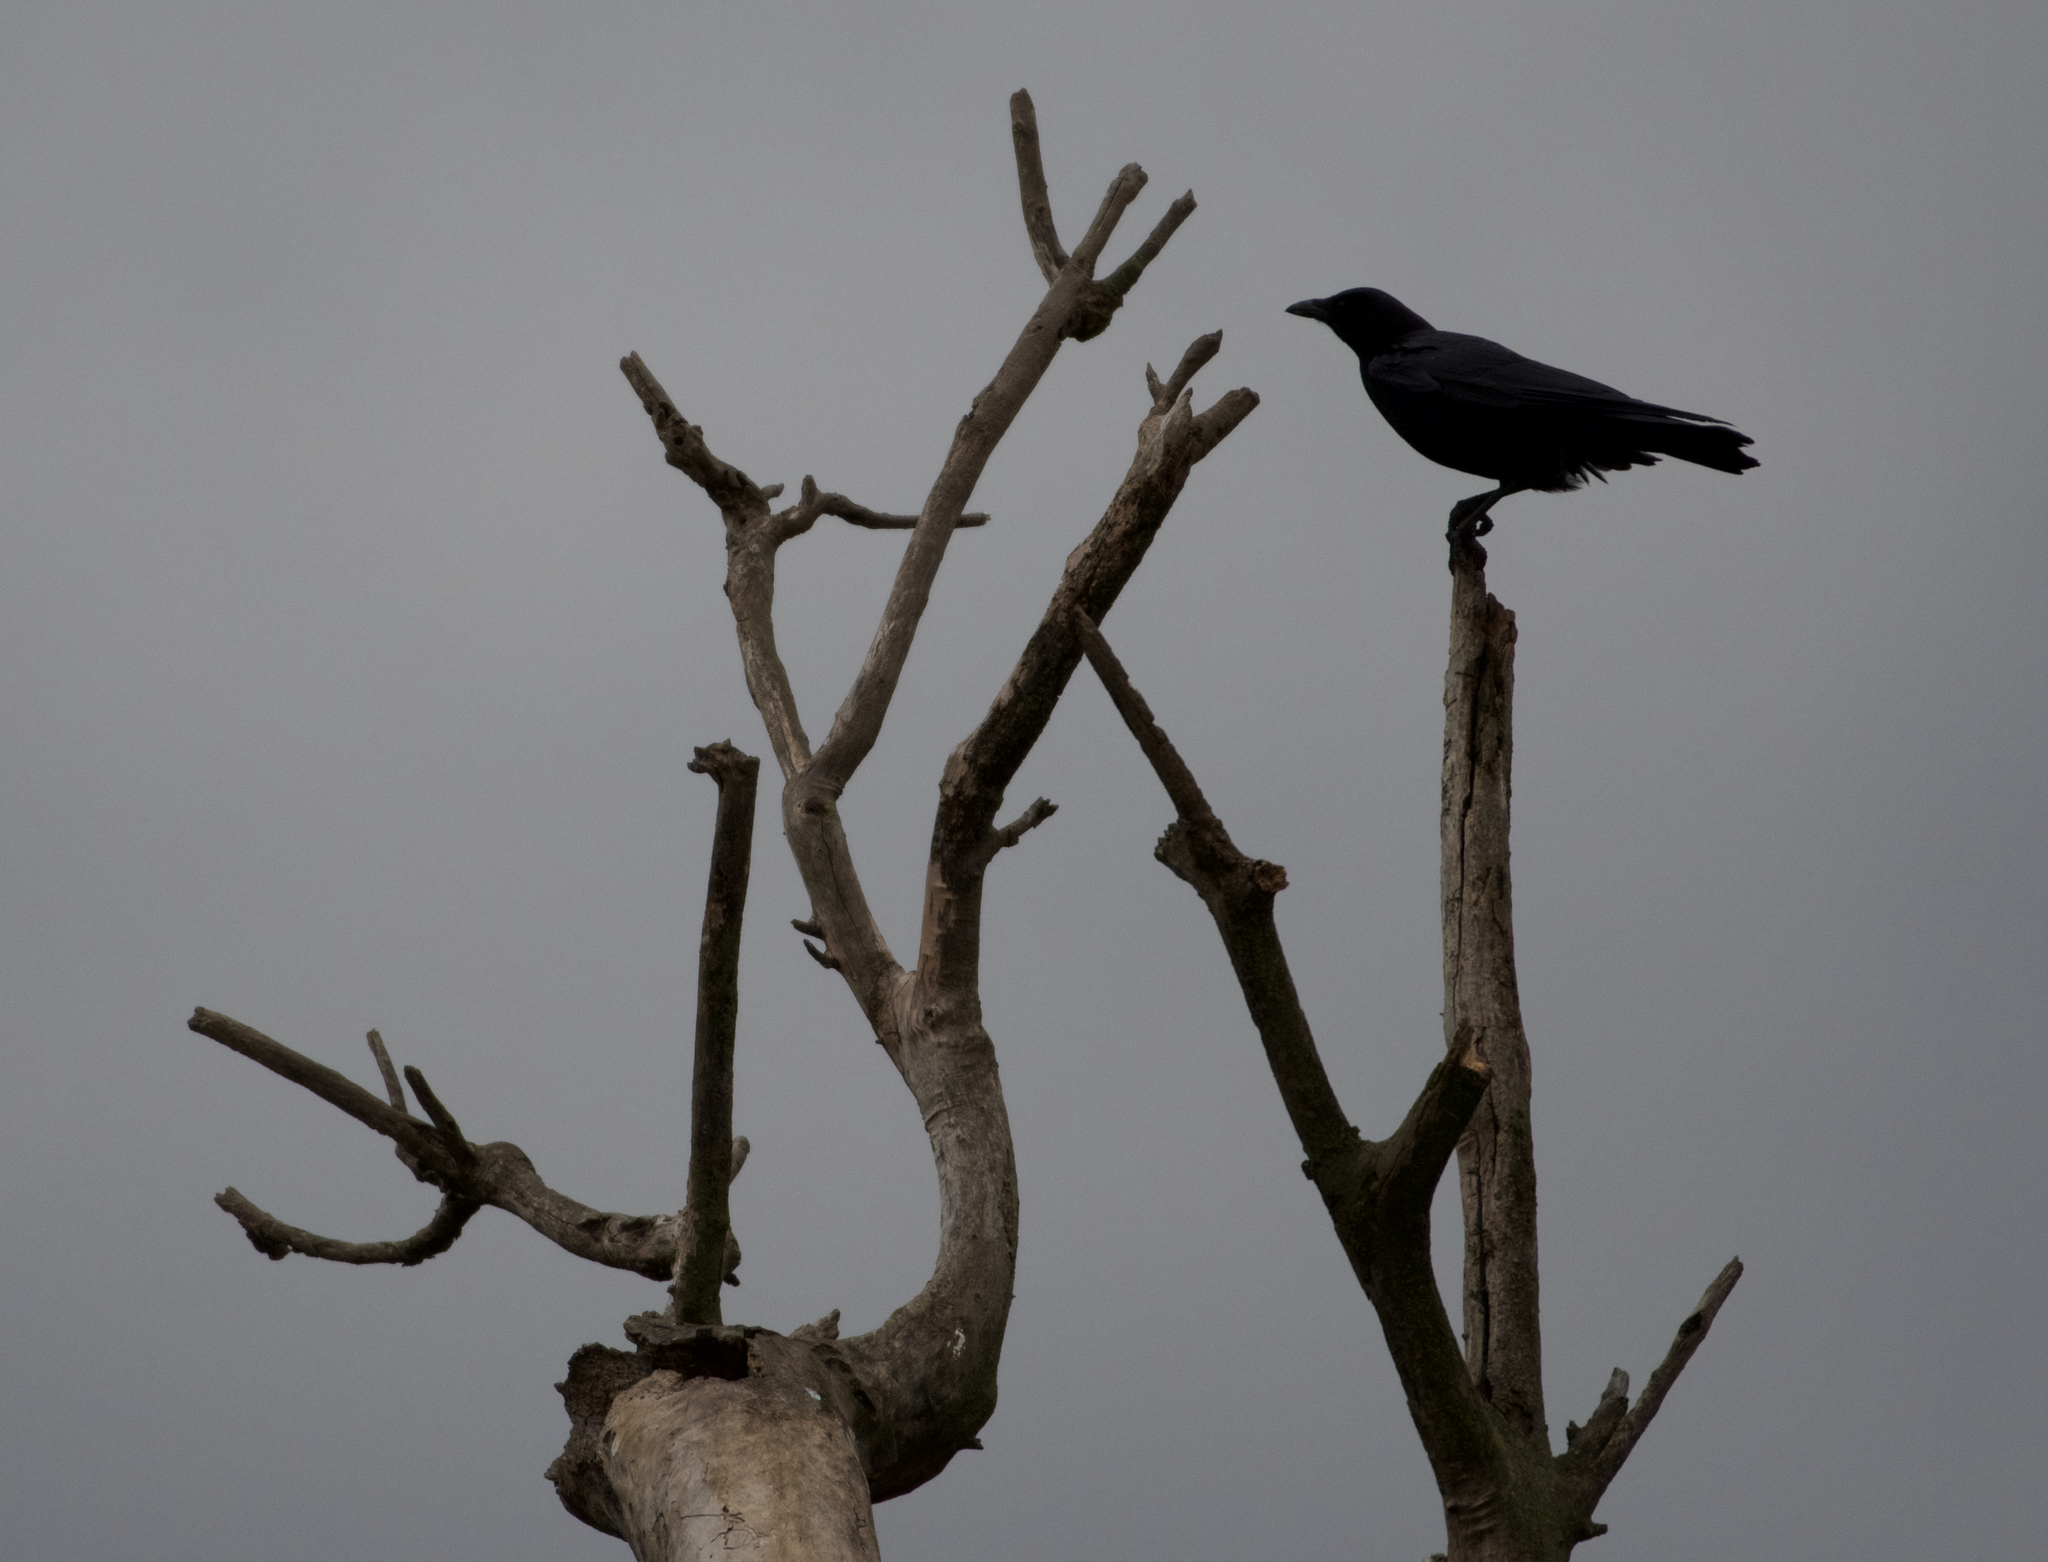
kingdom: Animalia
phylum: Chordata
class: Aves
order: Passeriformes
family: Corvidae
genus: Corvus
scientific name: Corvus brachyrhynchos
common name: American crow
